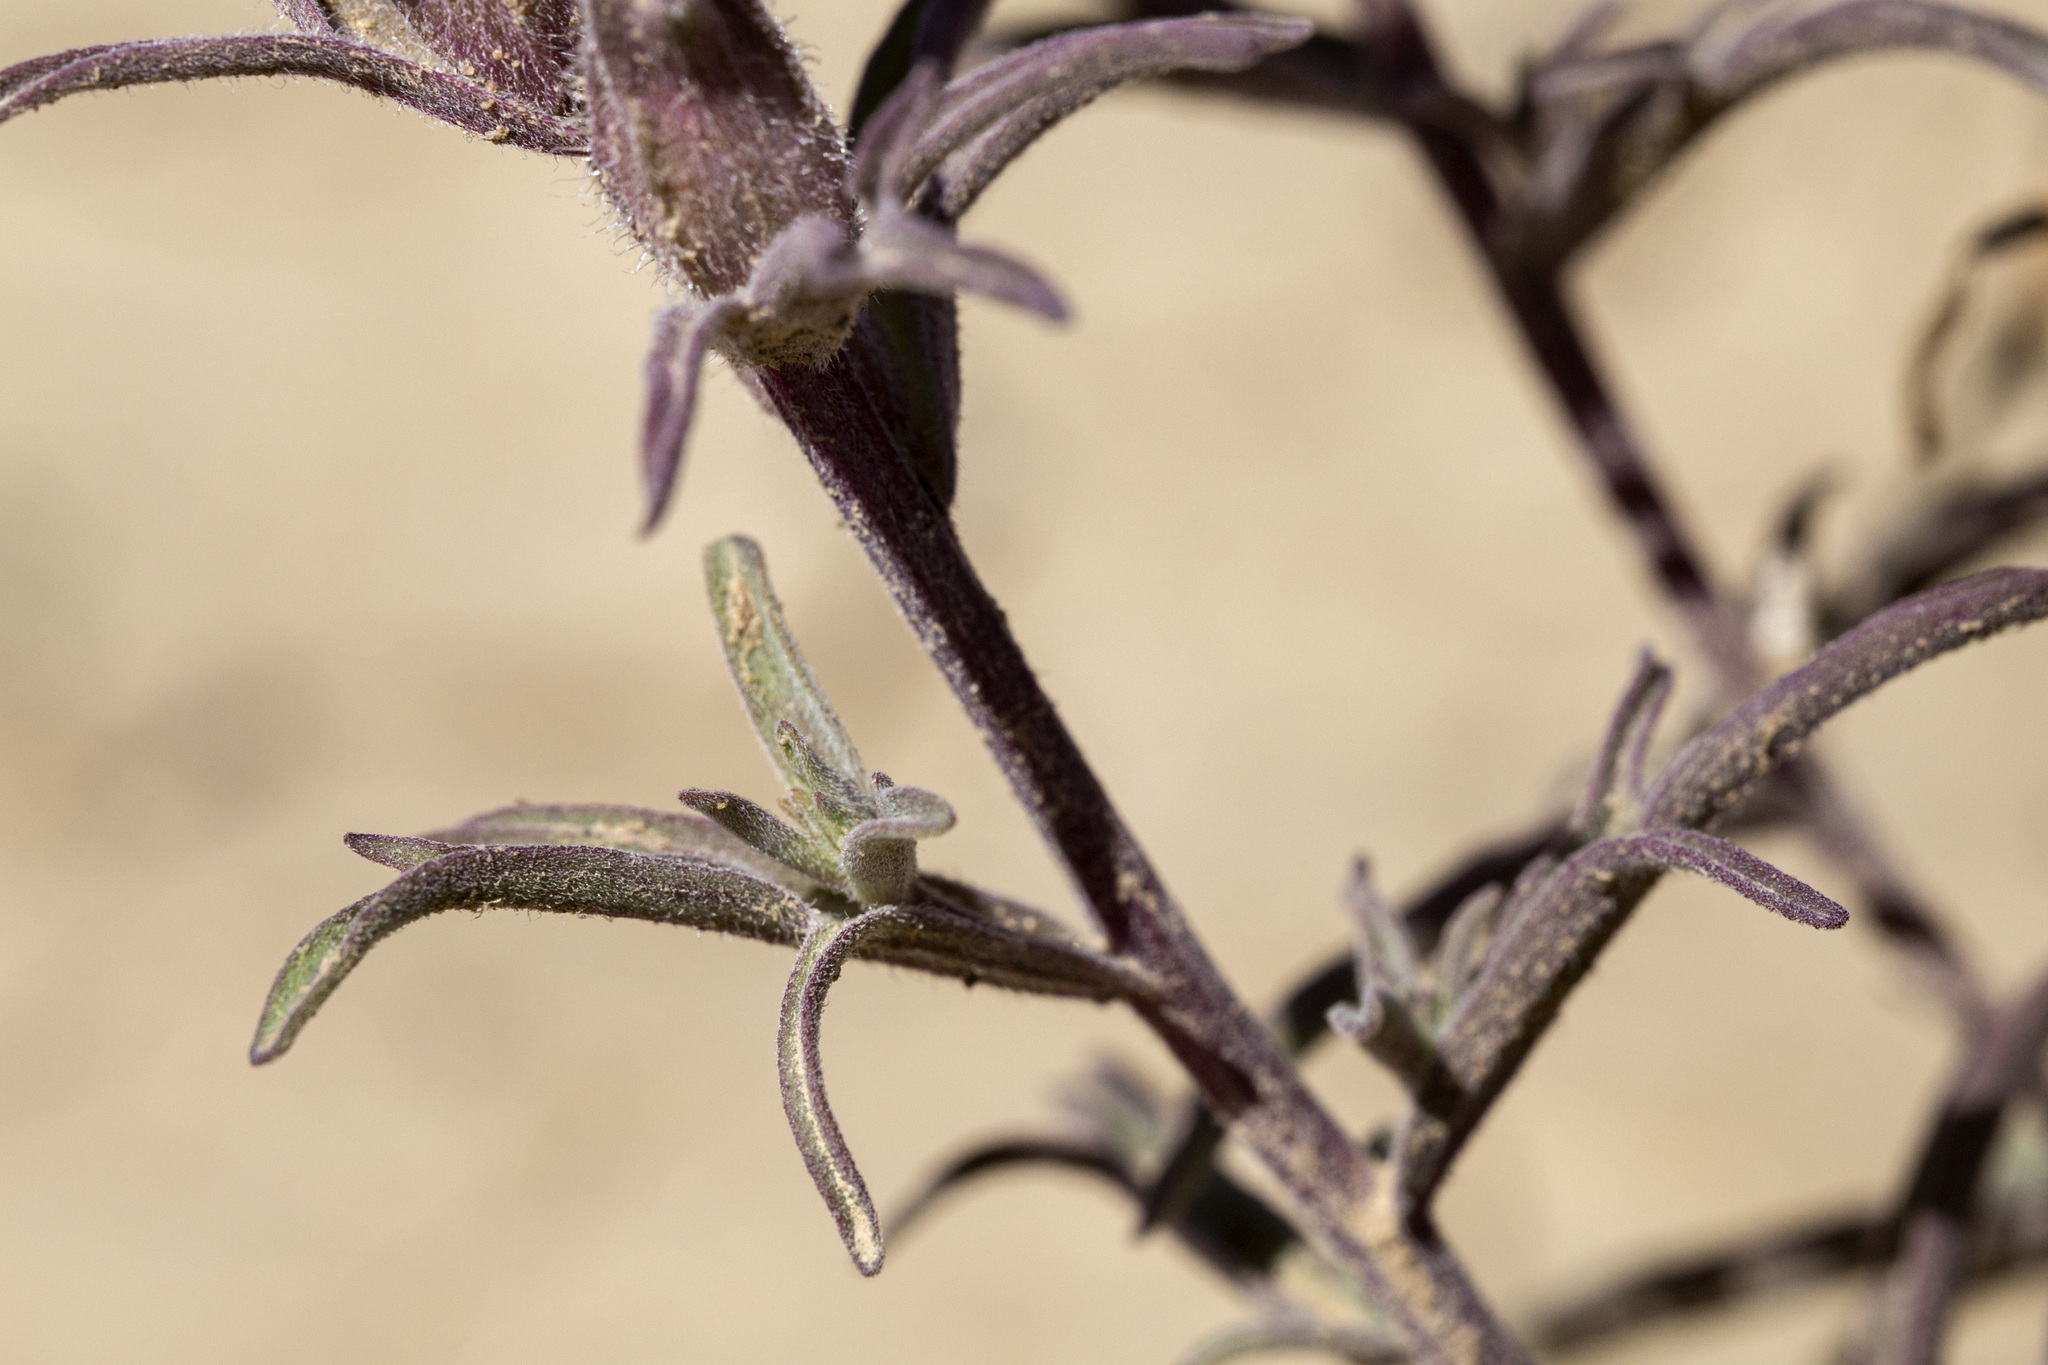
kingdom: Plantae
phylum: Tracheophyta
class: Magnoliopsida
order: Lamiales
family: Orobanchaceae
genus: Castilleja
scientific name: Castilleja angustifolia
